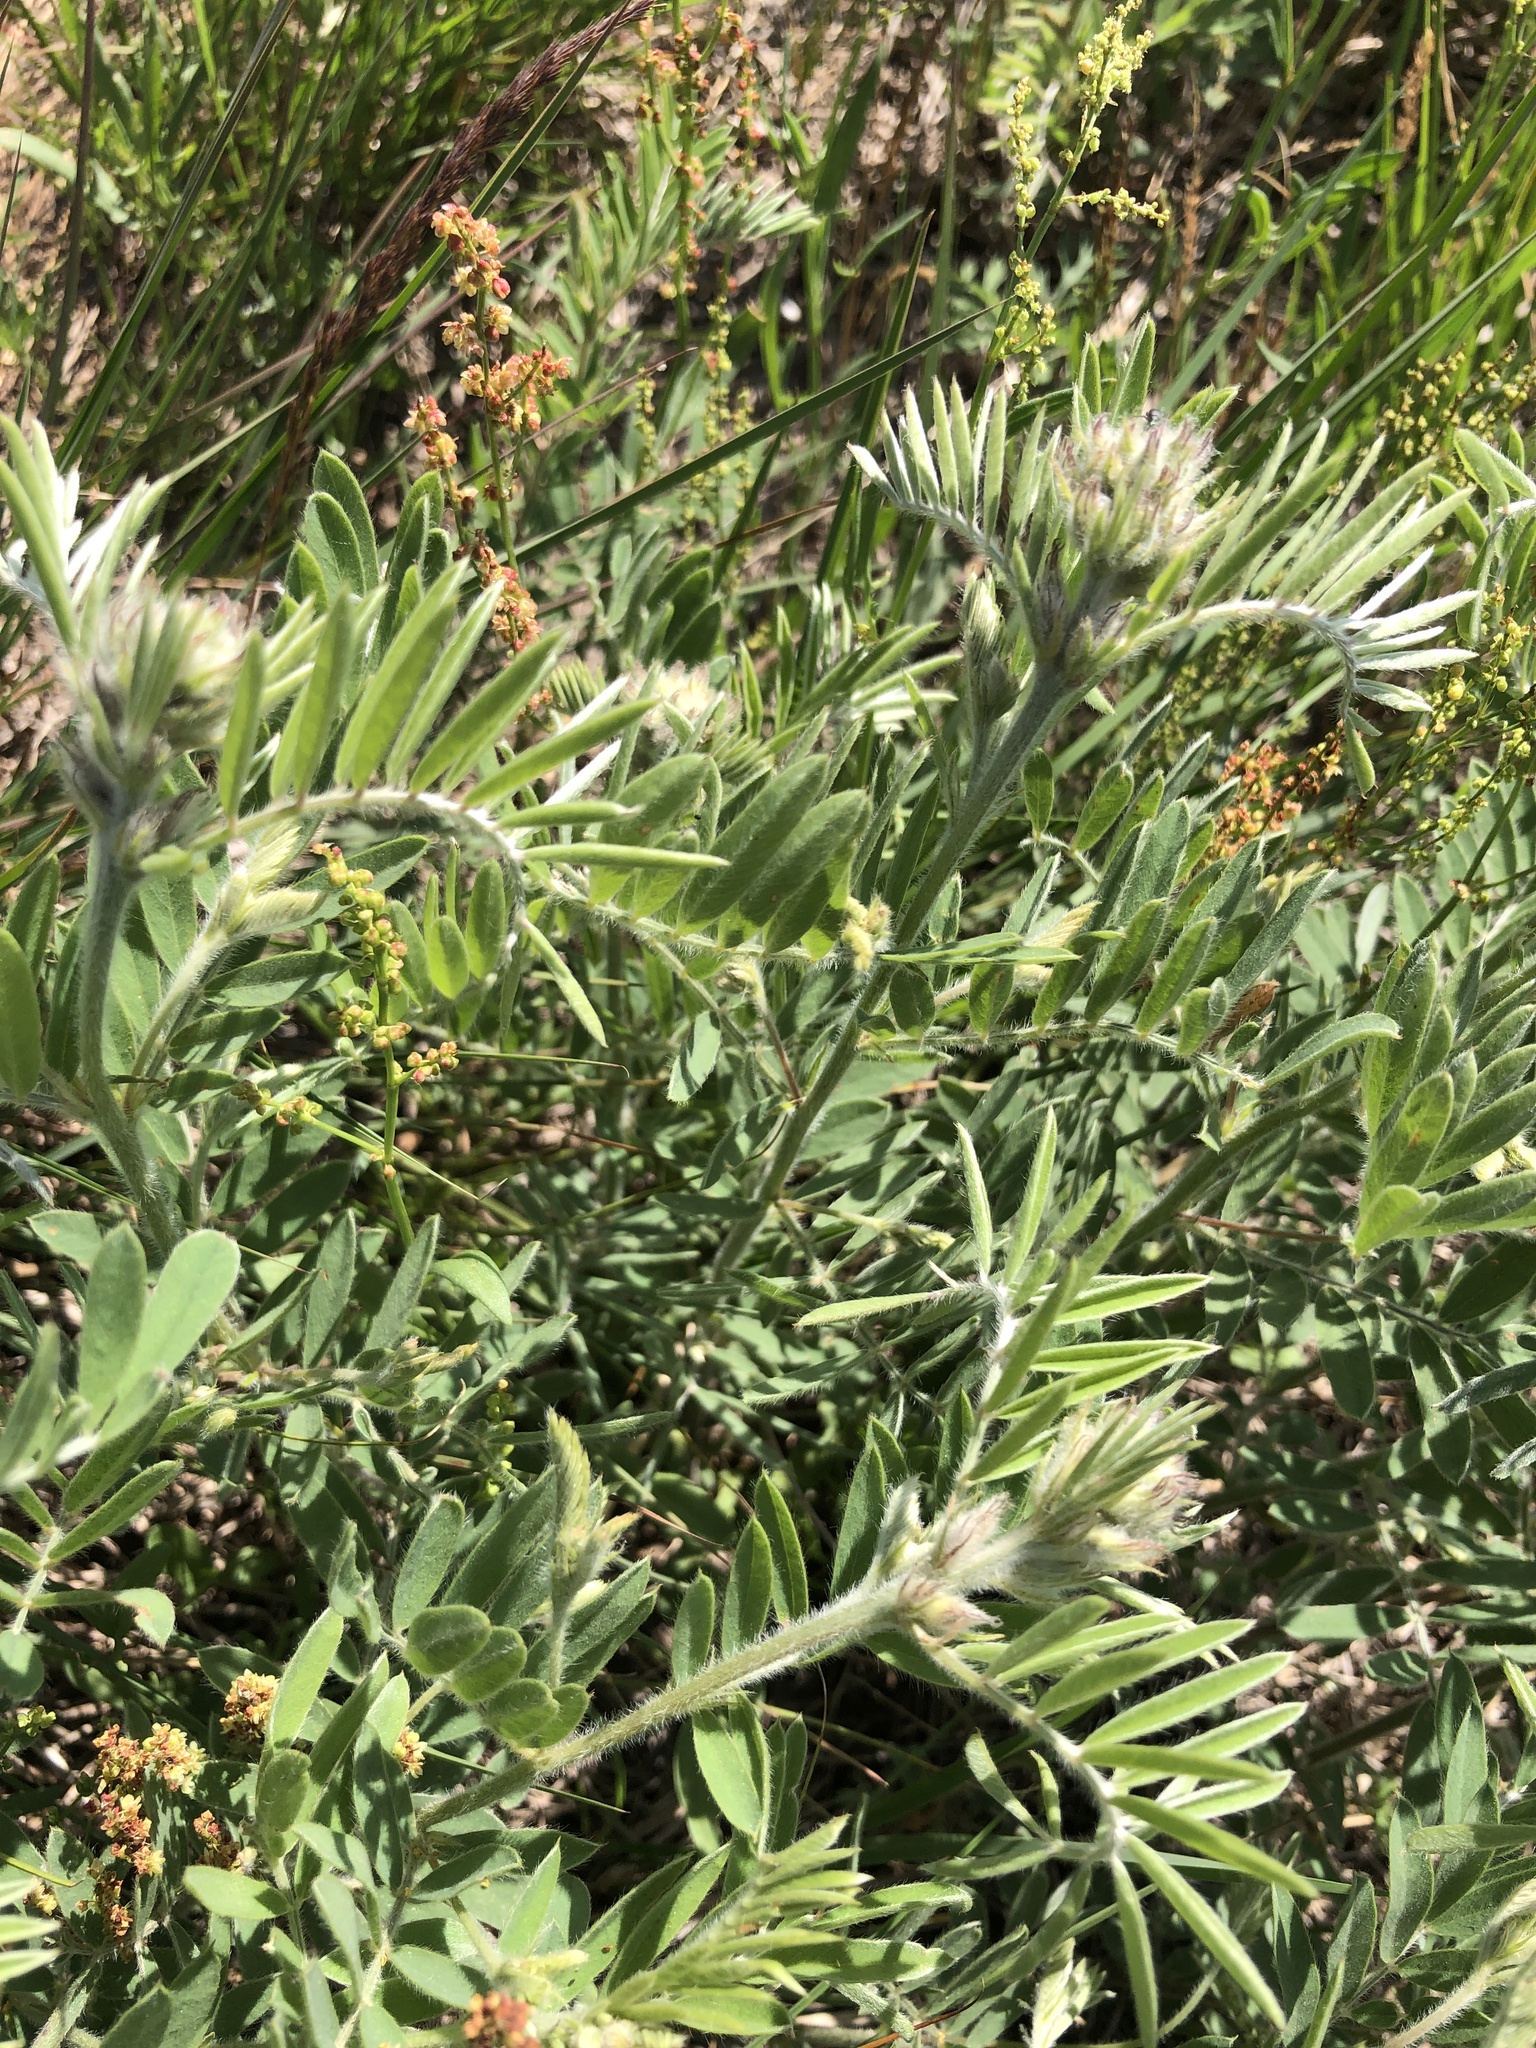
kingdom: Plantae
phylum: Tracheophyta
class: Magnoliopsida
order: Fabales
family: Fabaceae
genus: Tephrosia
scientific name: Tephrosia virginiana
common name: Rabbit-pea
